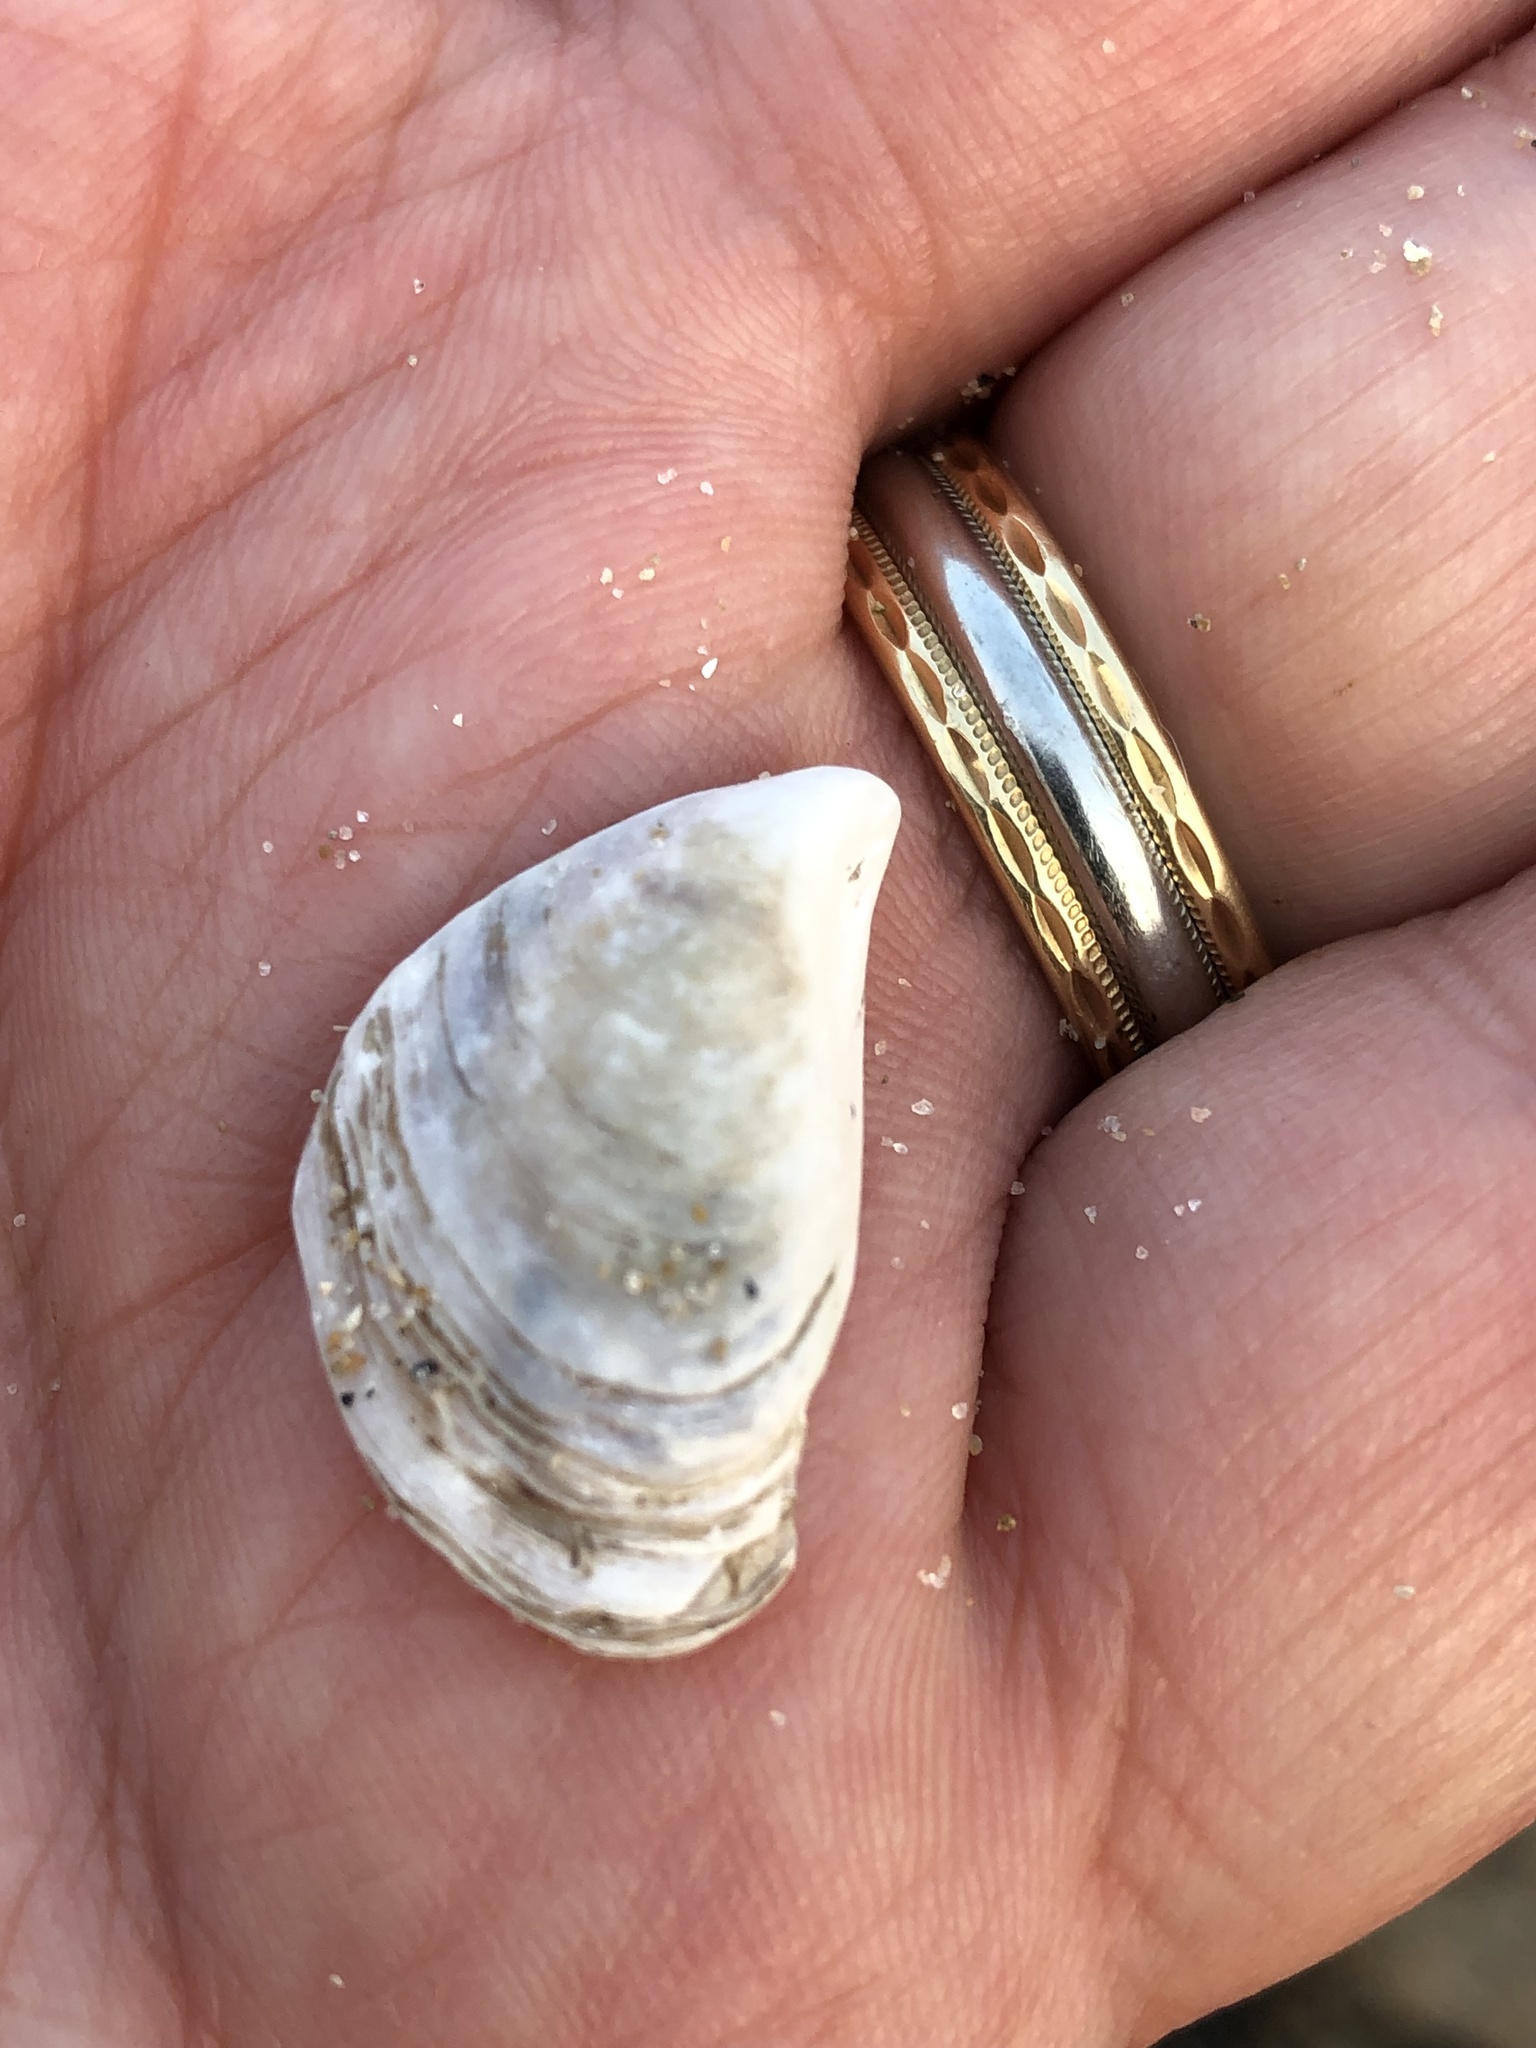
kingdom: Animalia
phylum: Mollusca
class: Bivalvia
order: Myida
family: Dreissenidae
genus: Dreissena
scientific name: Dreissena bugensis
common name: Quagga mussel
